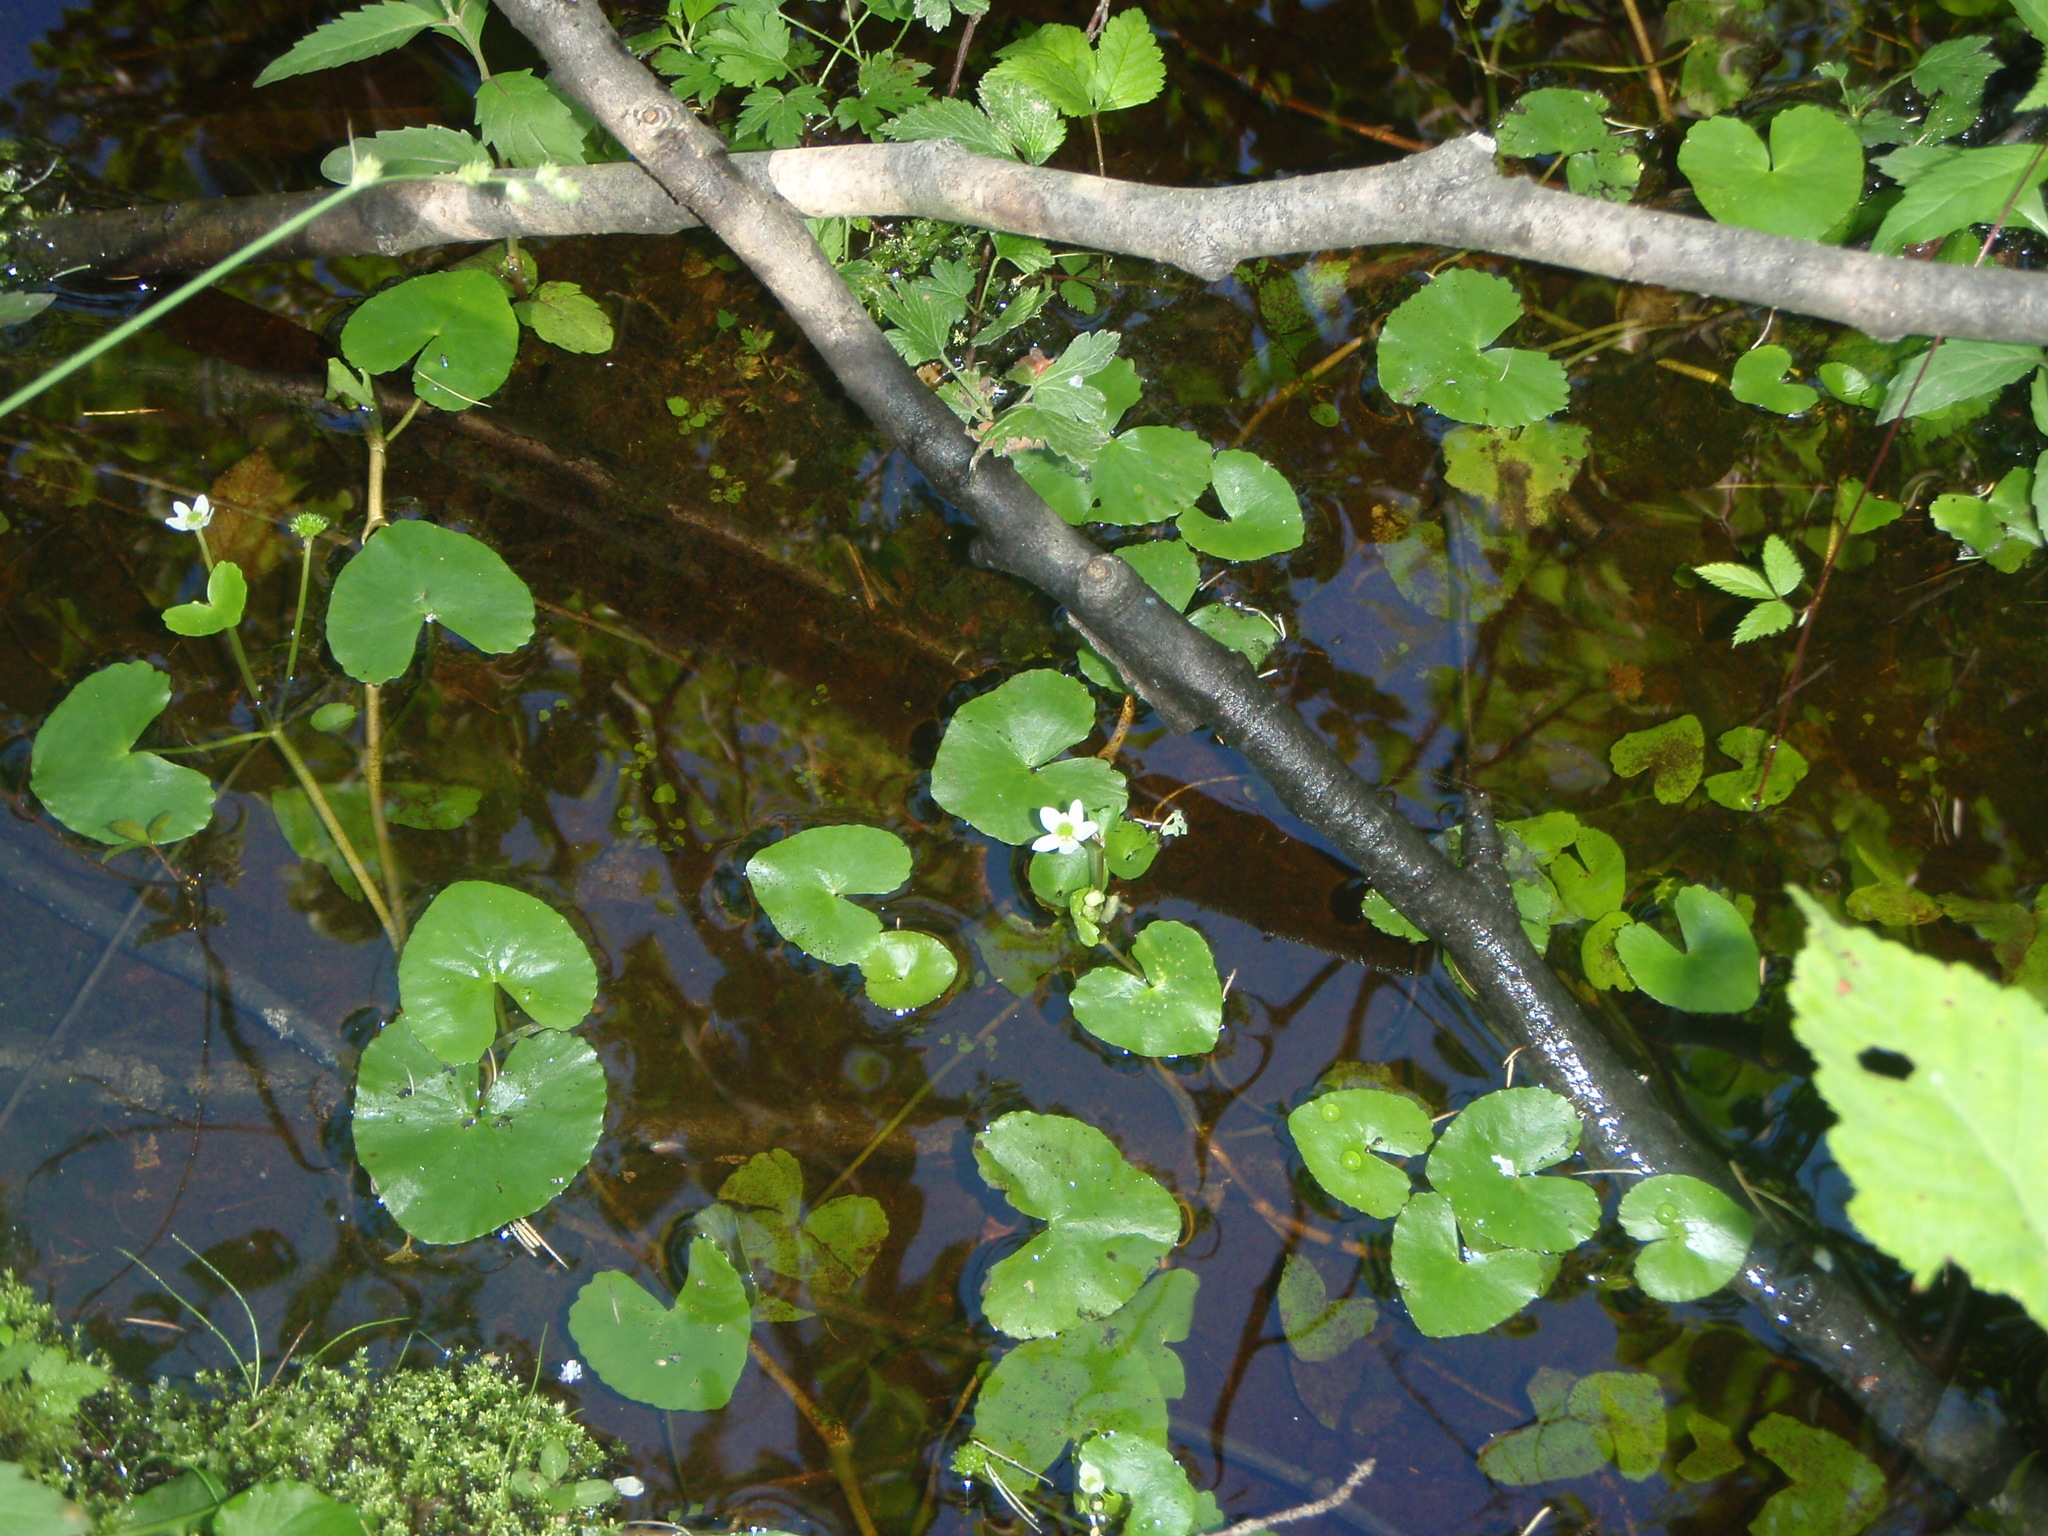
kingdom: Plantae
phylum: Tracheophyta
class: Magnoliopsida
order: Ranunculales
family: Ranunculaceae
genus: Caltha
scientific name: Caltha natans
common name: Floating marsh marigold
